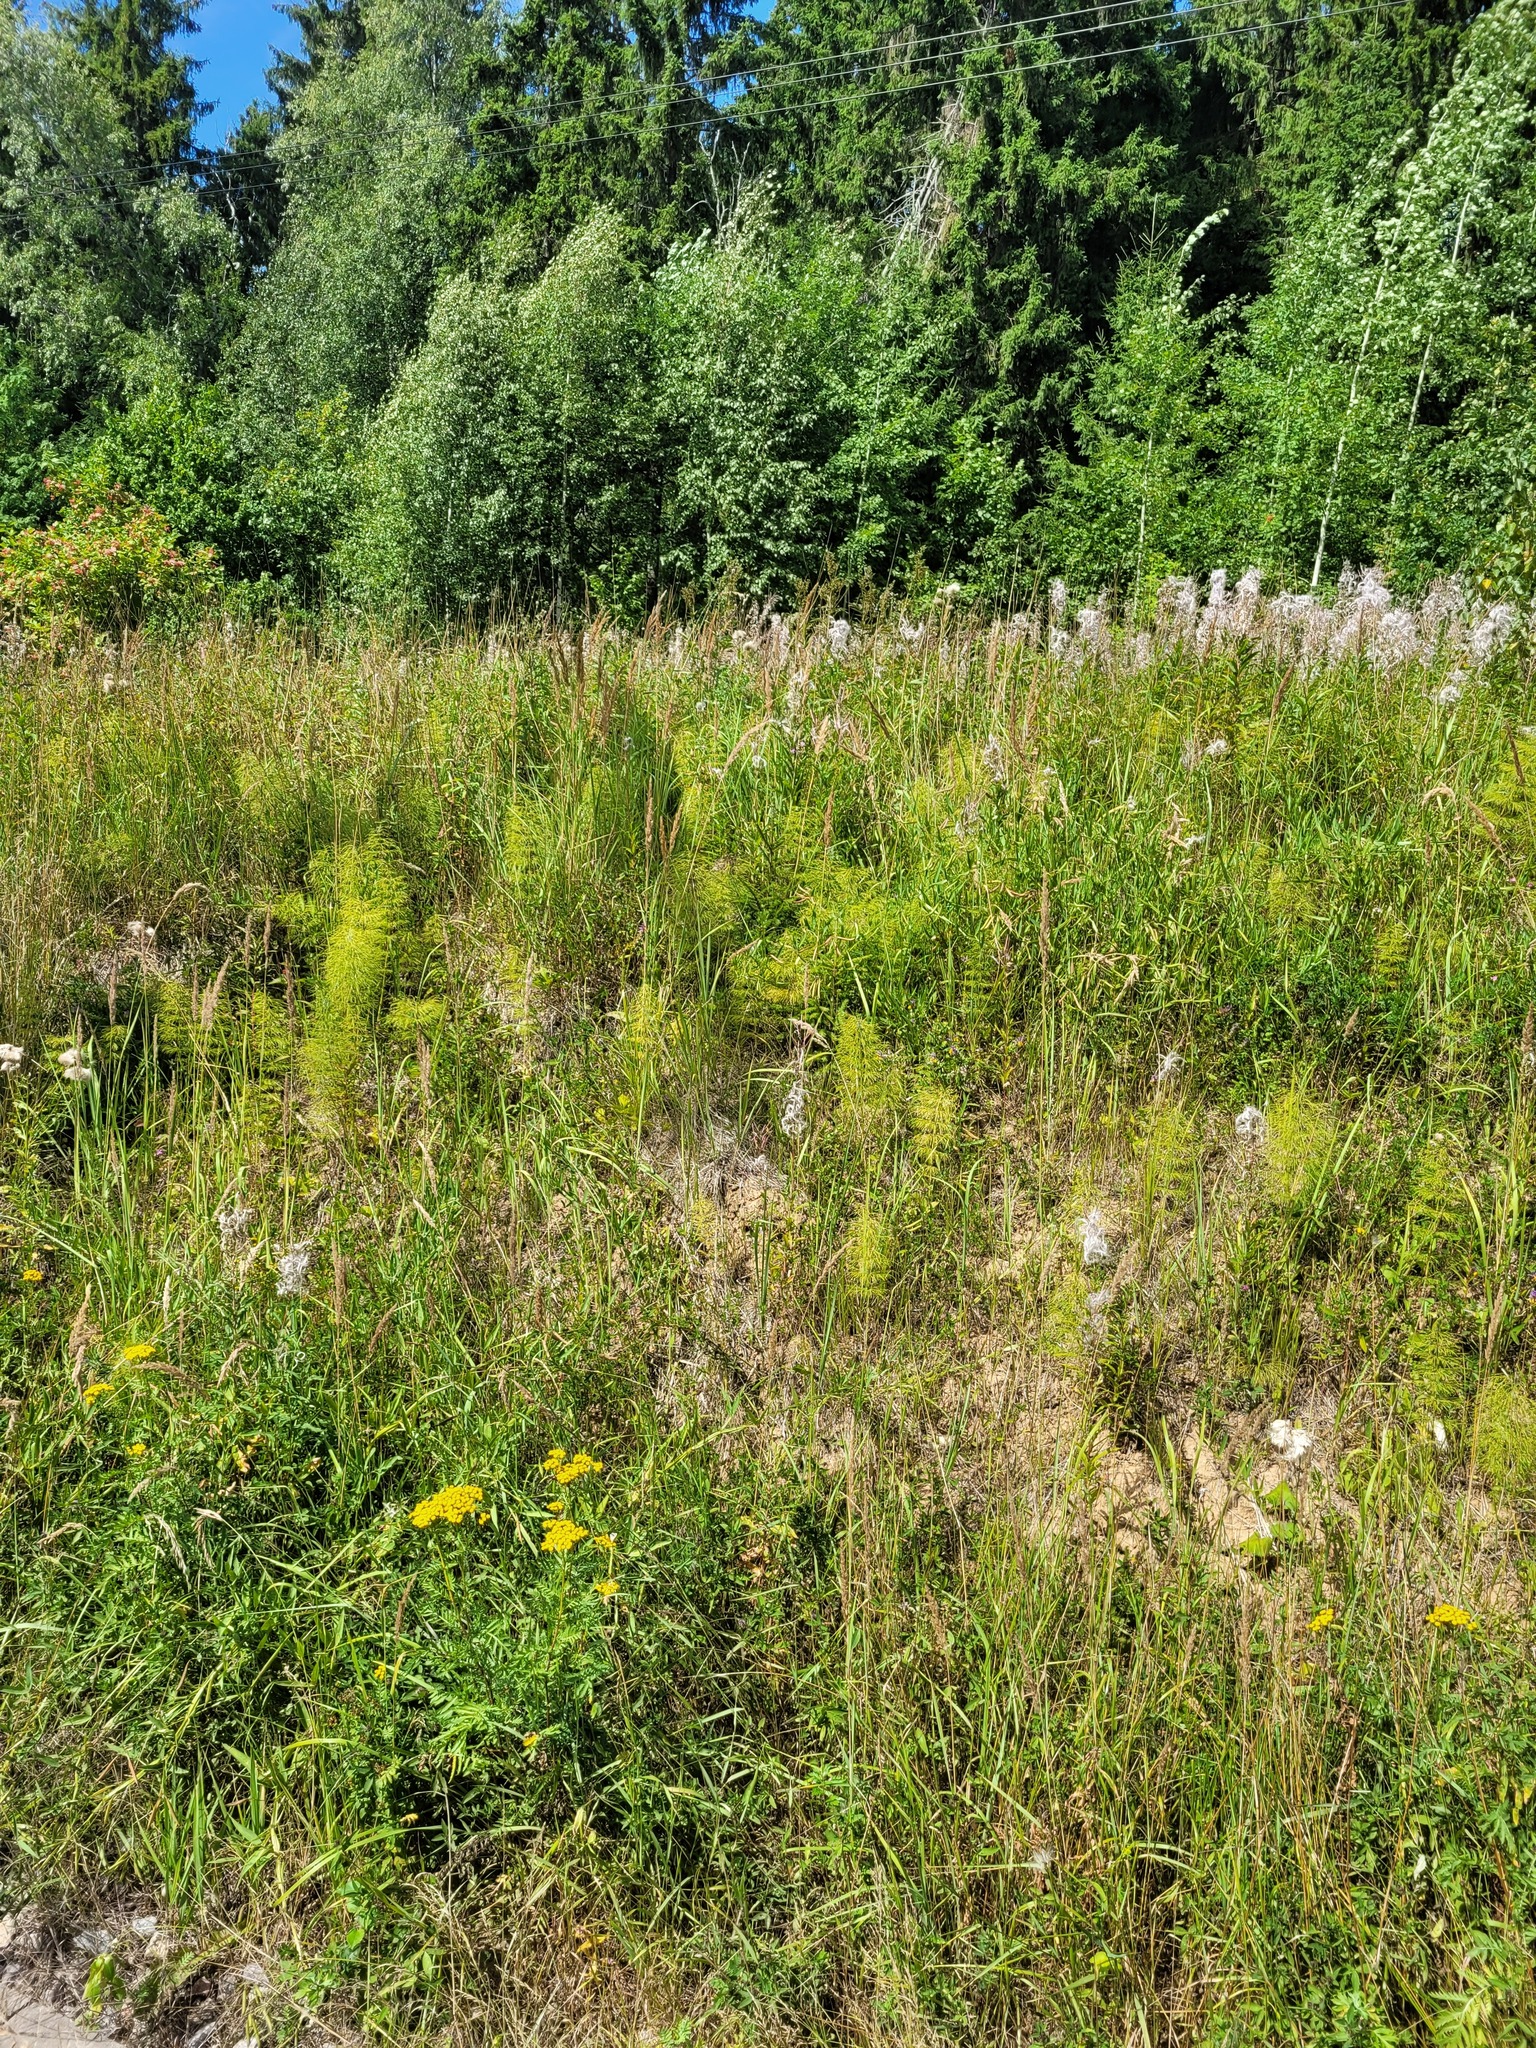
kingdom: Plantae
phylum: Tracheophyta
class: Polypodiopsida
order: Equisetales
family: Equisetaceae
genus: Equisetum
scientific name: Equisetum sylvaticum
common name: Wood horsetail
